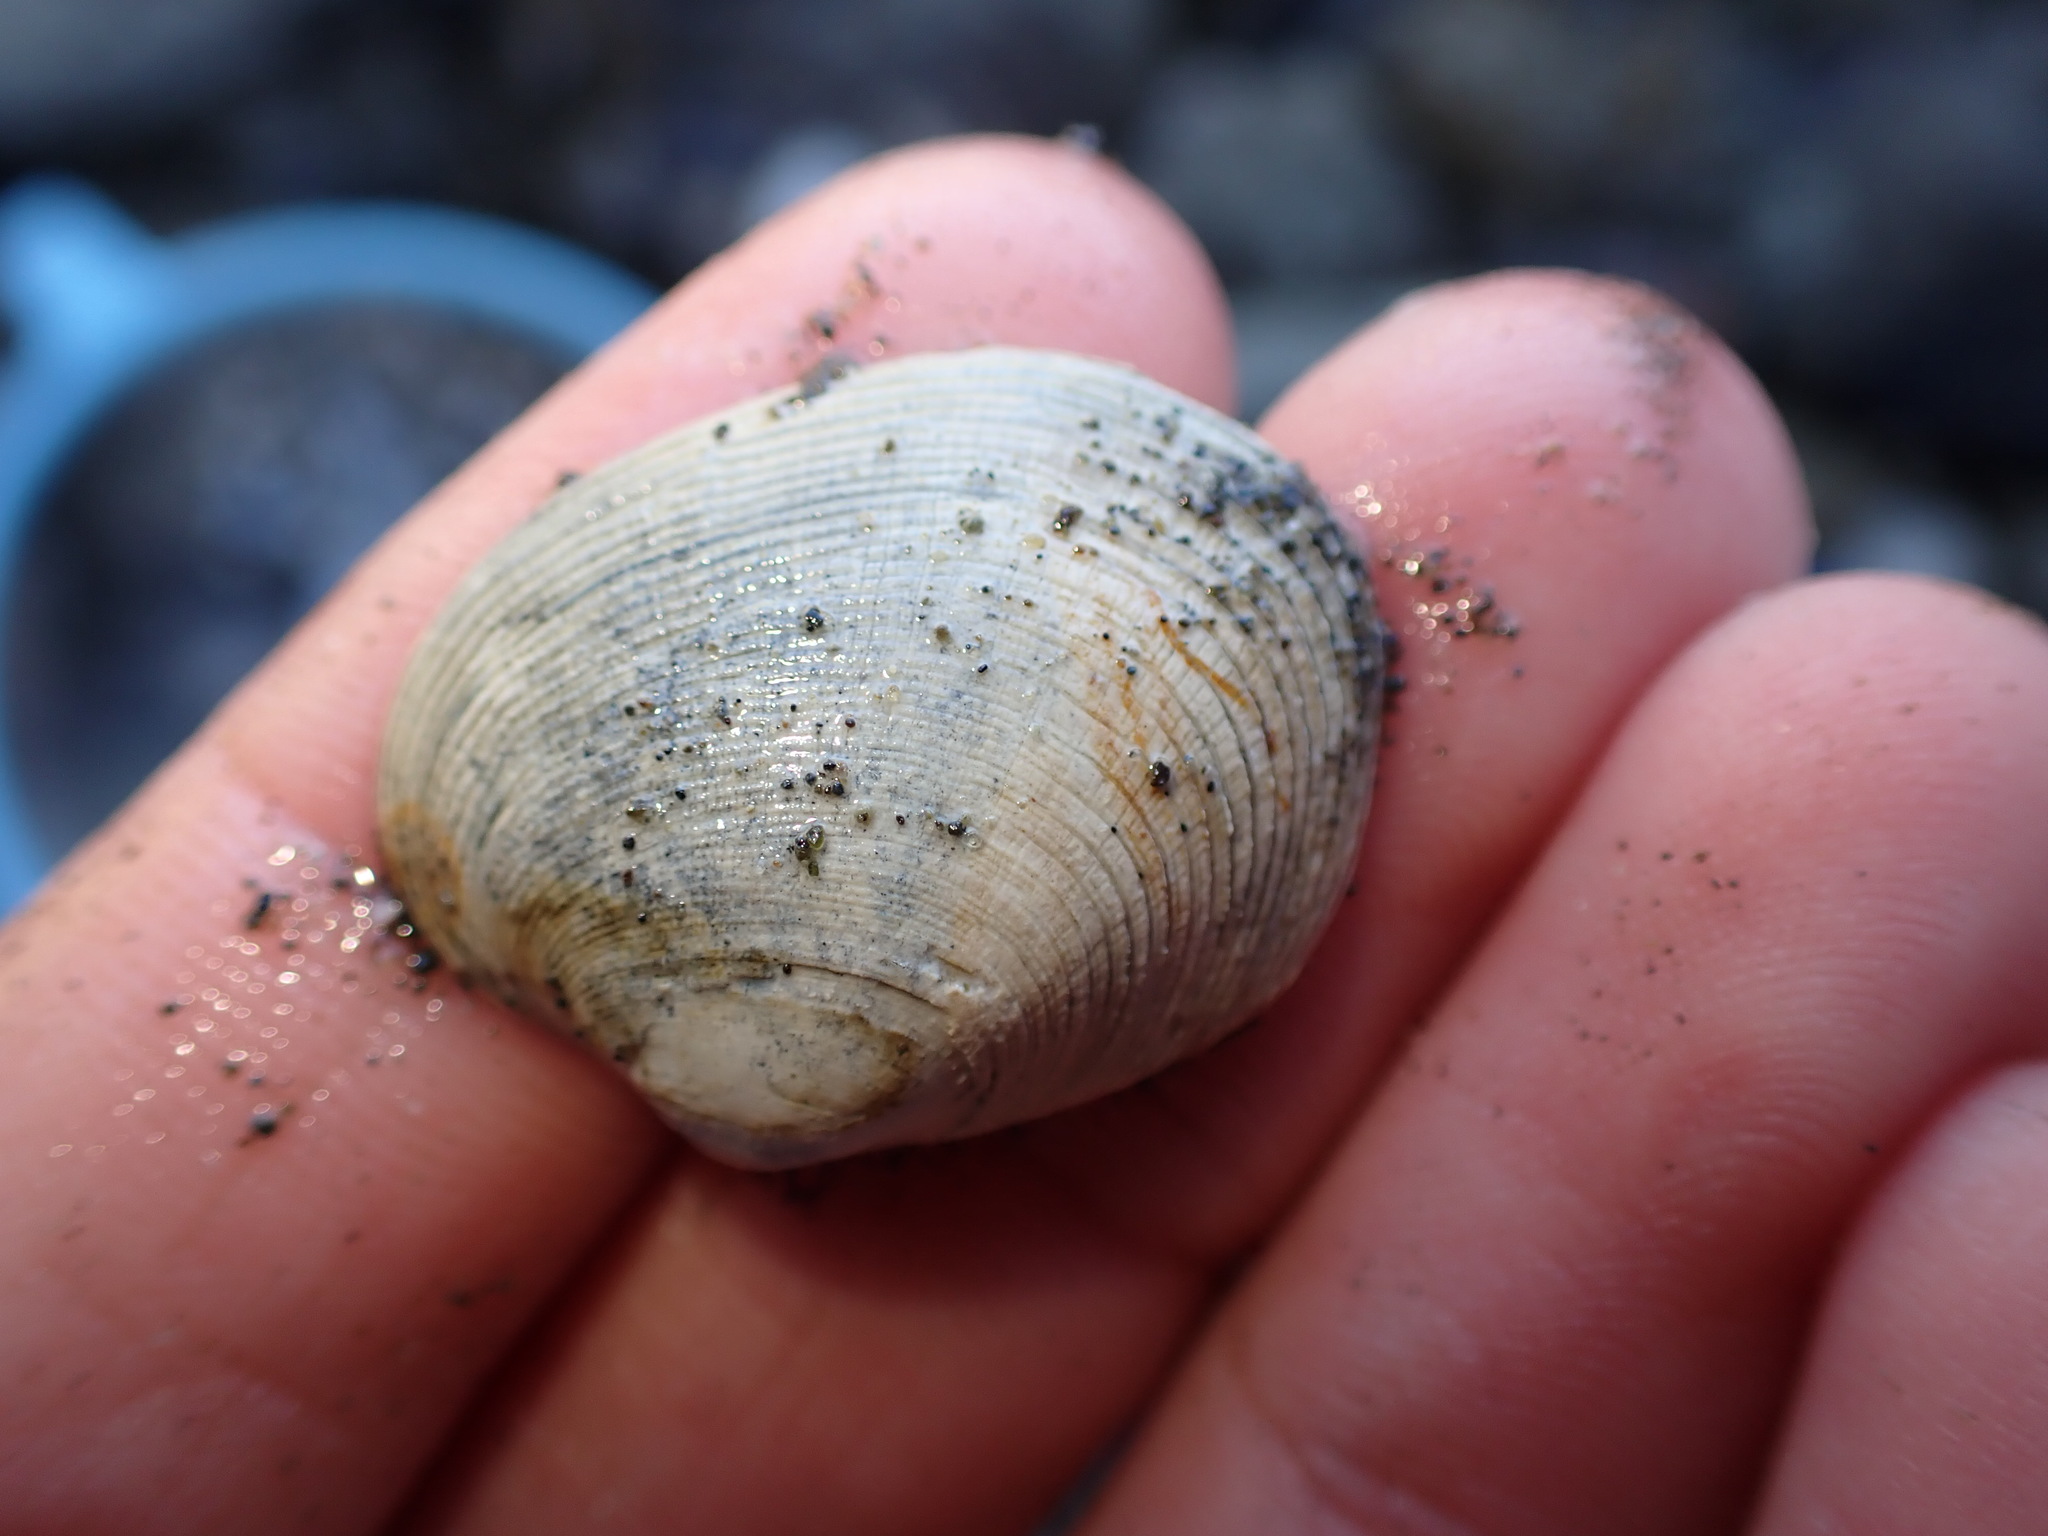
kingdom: Animalia
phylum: Mollusca
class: Bivalvia
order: Venerida
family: Veneridae
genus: Venerupis
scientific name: Venerupis largillierti
